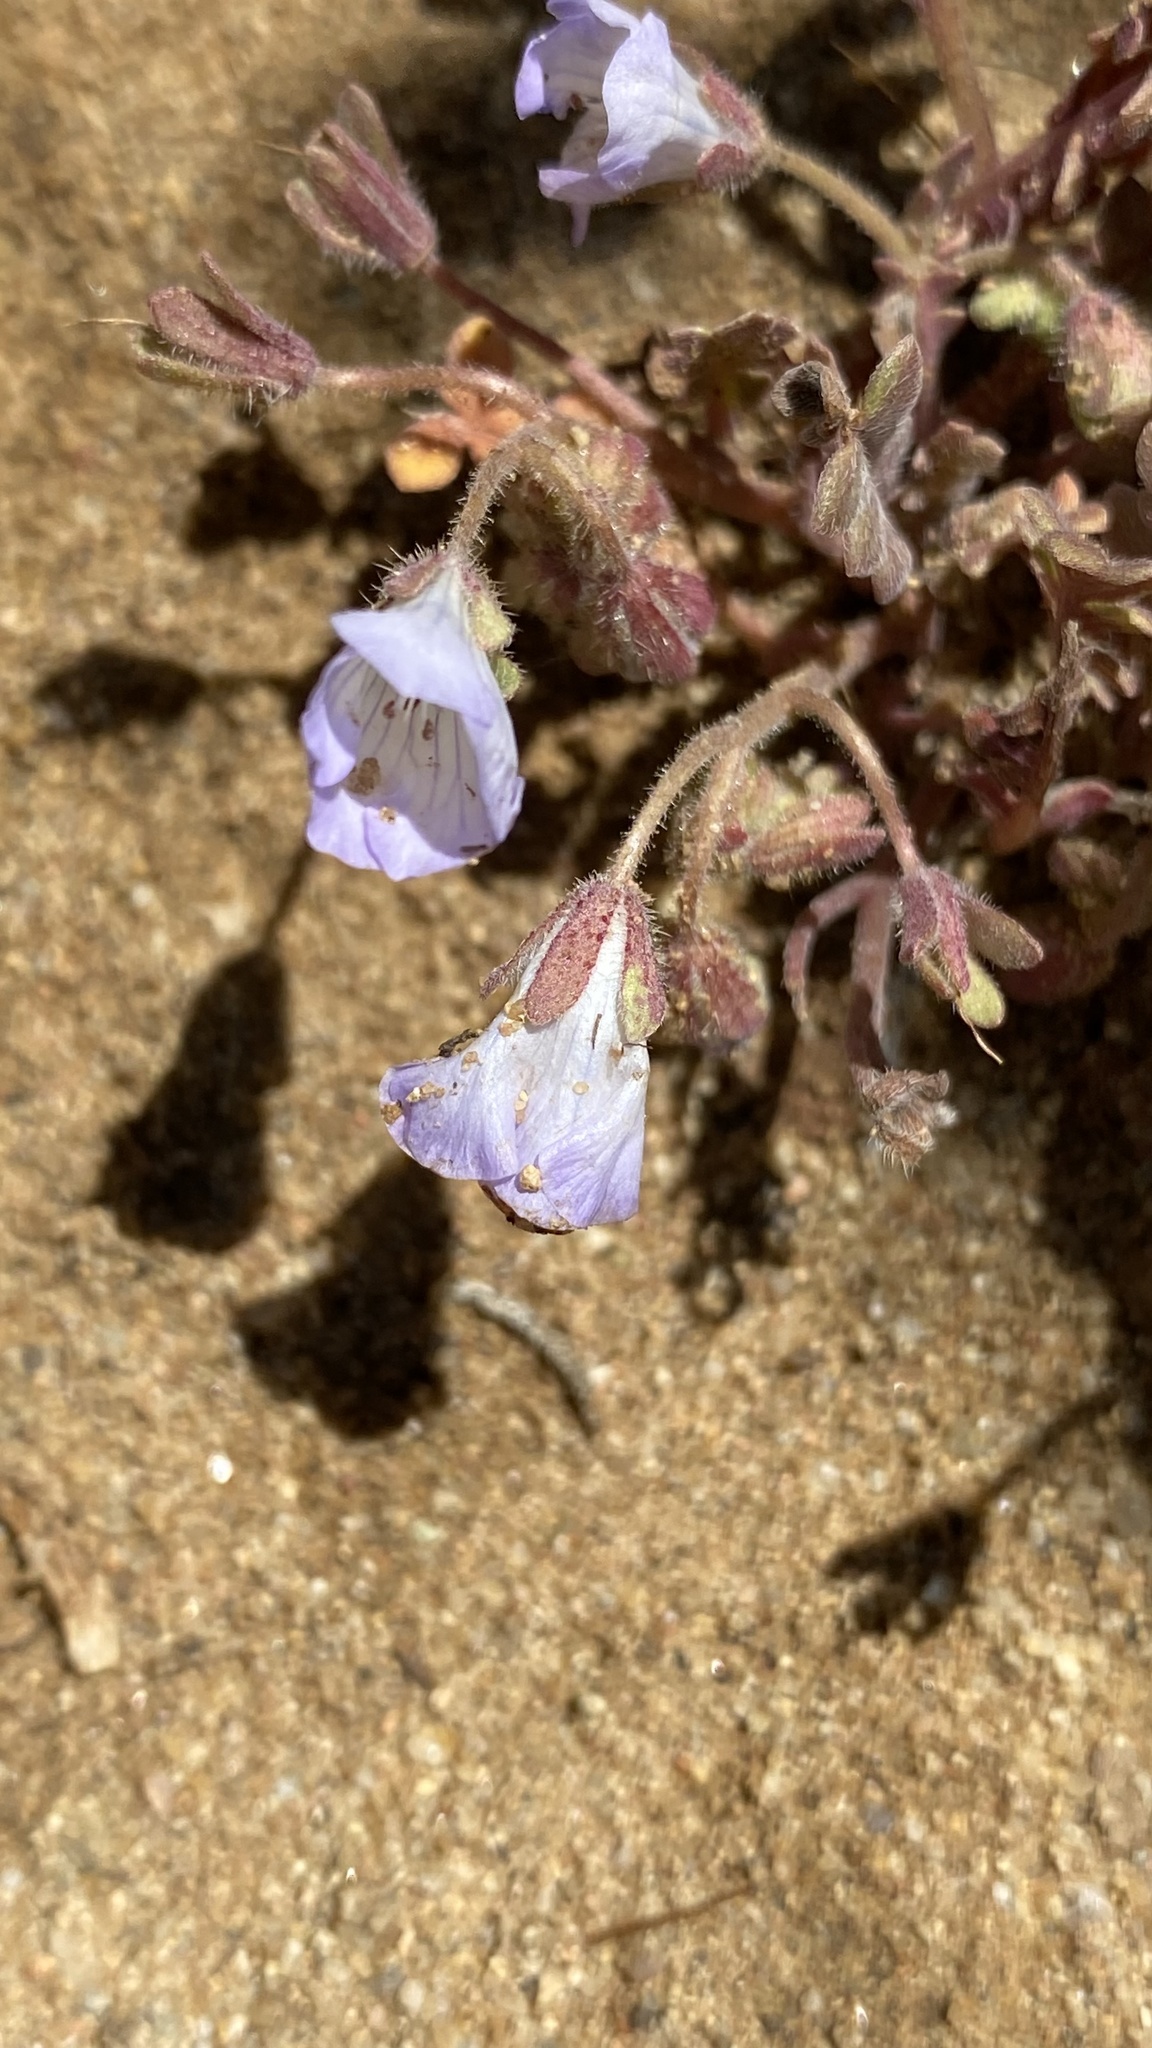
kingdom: Plantae
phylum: Tracheophyta
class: Magnoliopsida
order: Boraginales
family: Hydrophyllaceae
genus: Phacelia
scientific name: Phacelia douglasii
